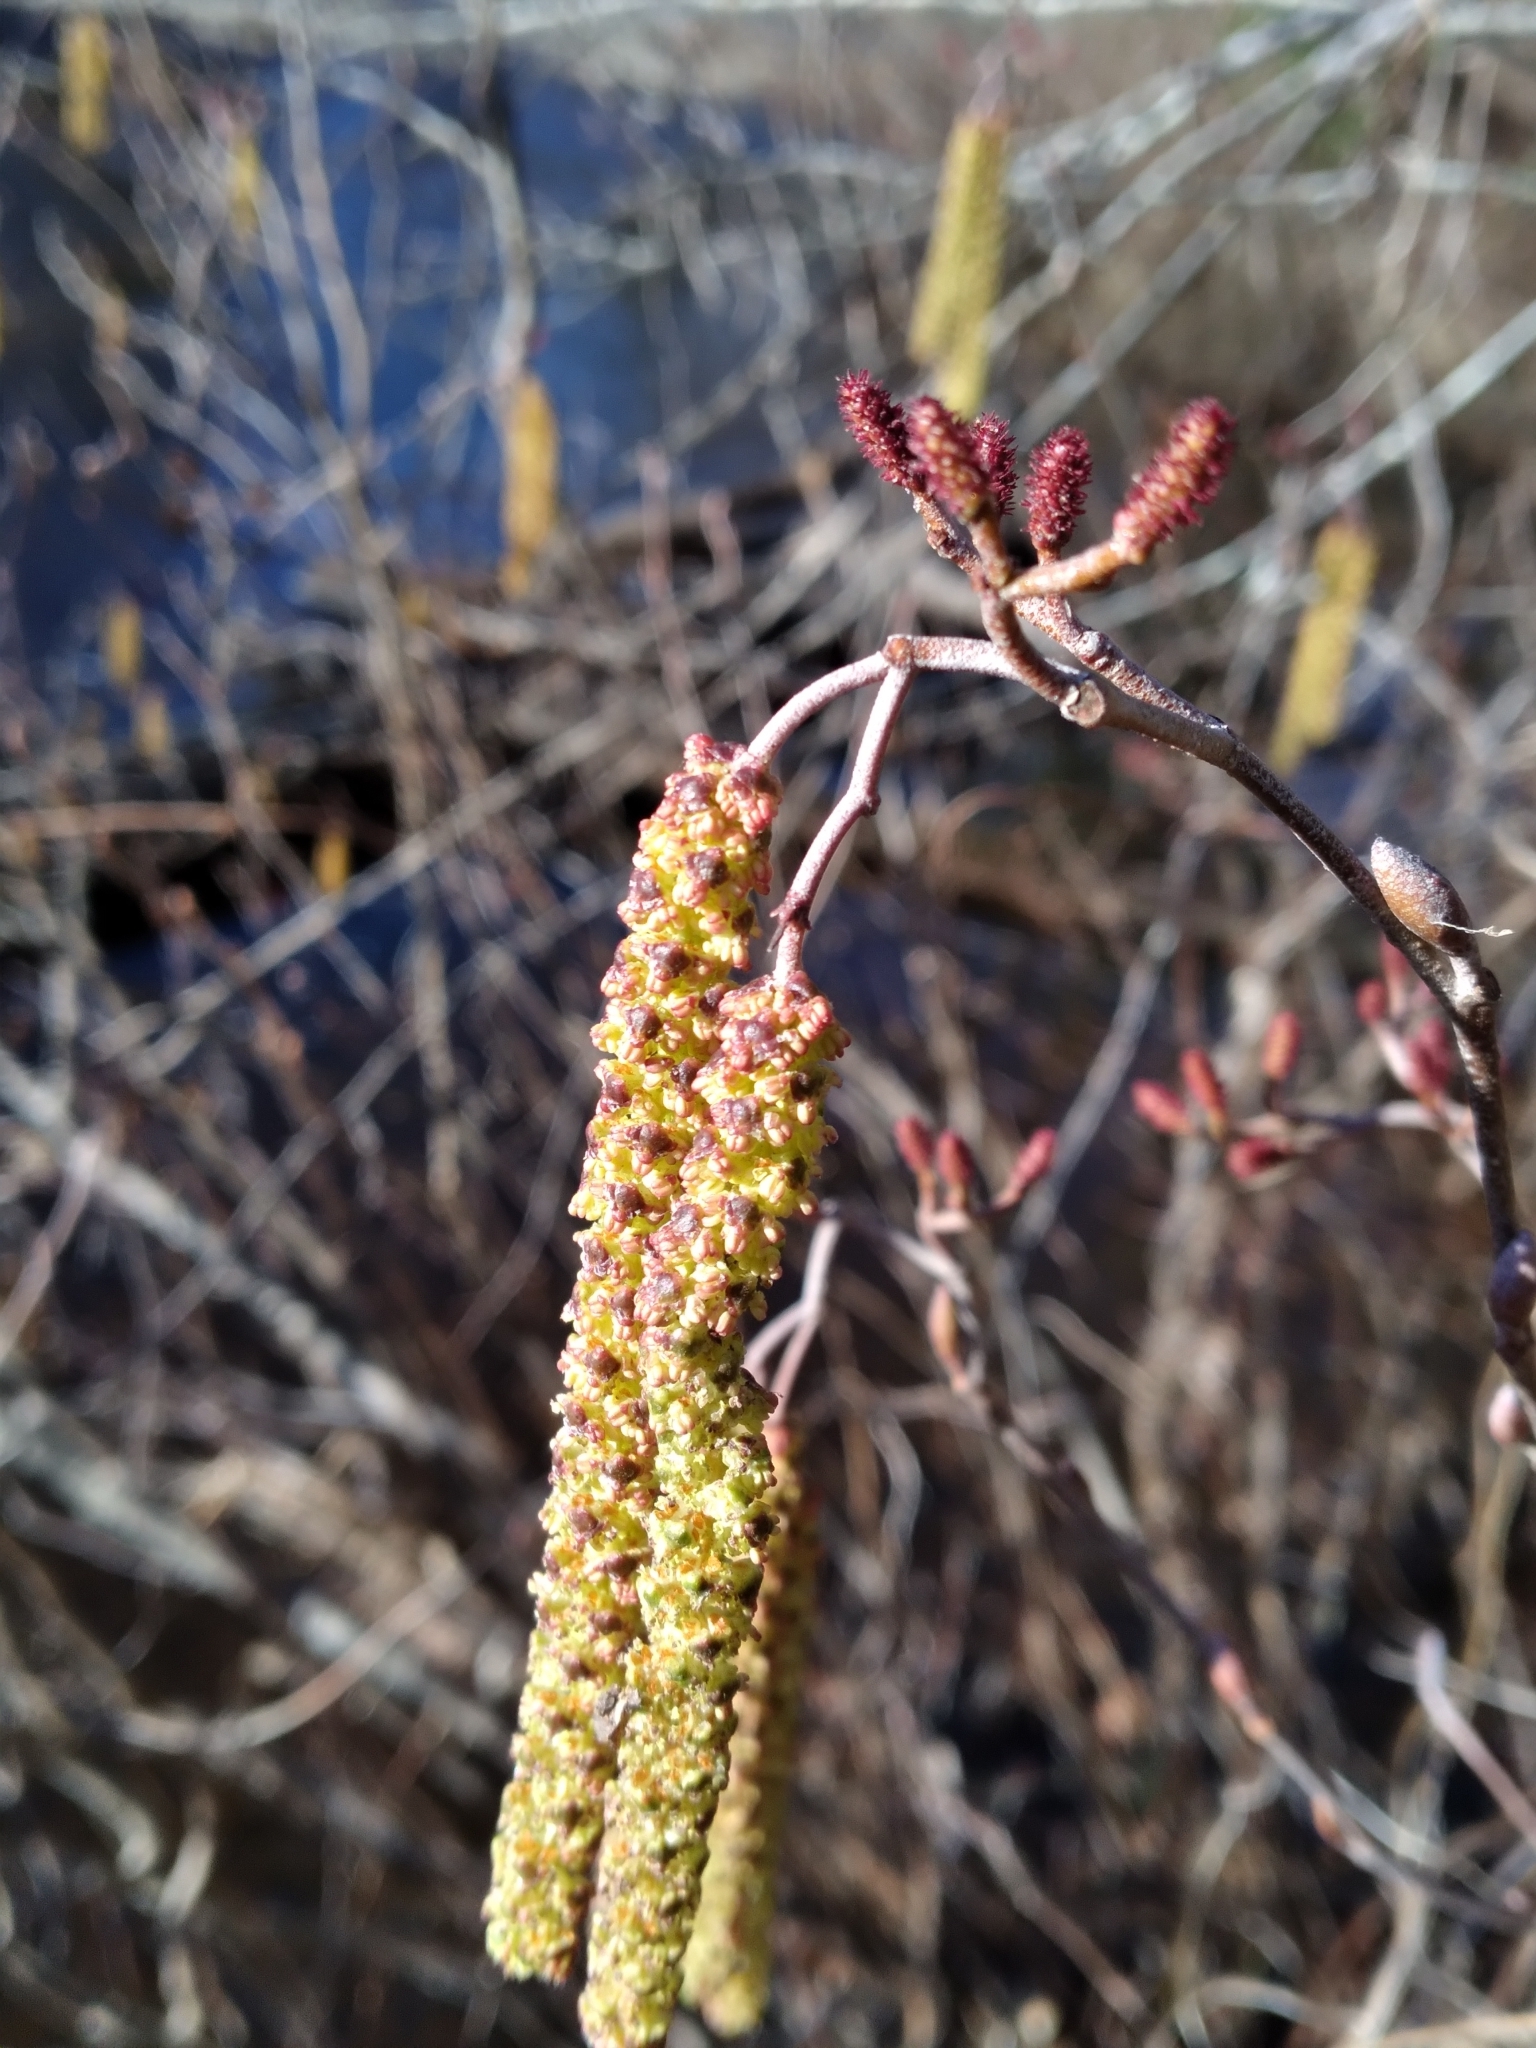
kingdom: Plantae
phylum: Tracheophyta
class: Magnoliopsida
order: Fagales
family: Betulaceae
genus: Alnus
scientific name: Alnus serrulata
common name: Hazel alder
